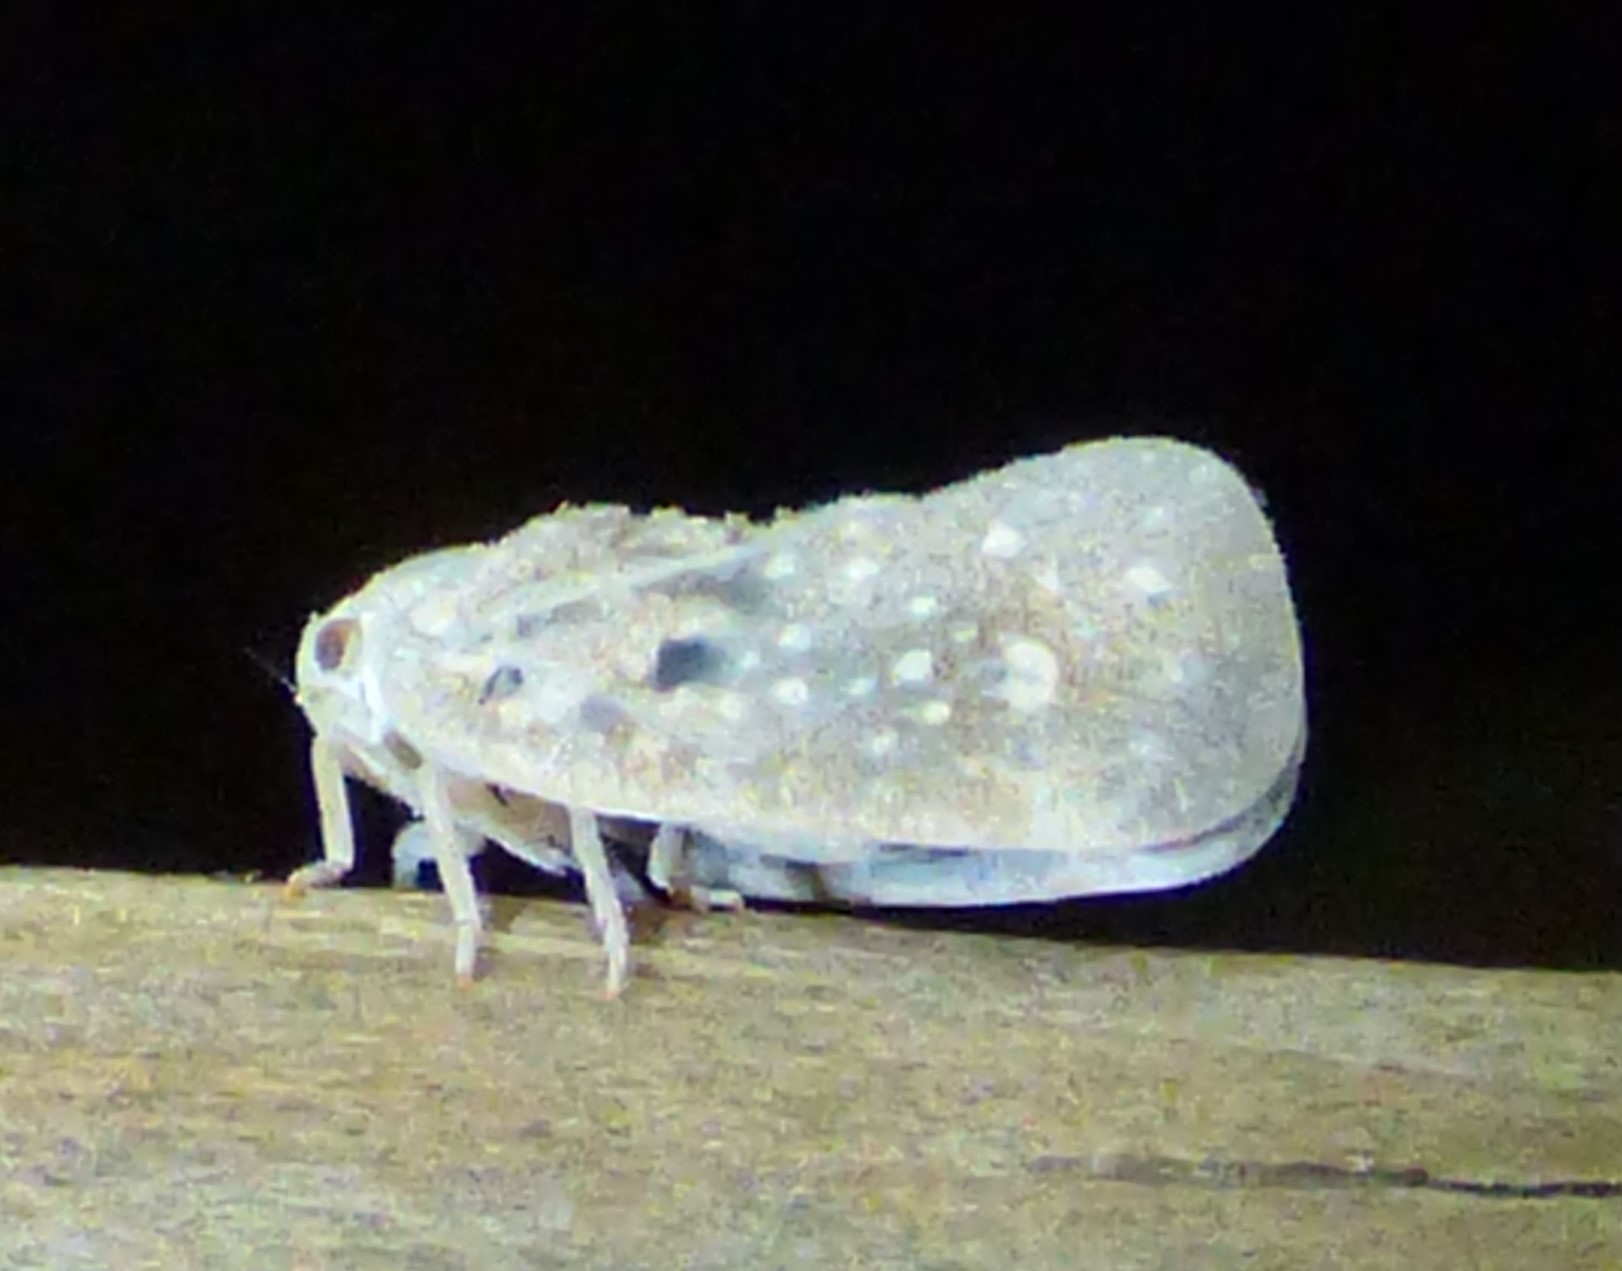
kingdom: Animalia
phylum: Arthropoda
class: Insecta
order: Hemiptera
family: Flatidae
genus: Metcalfa
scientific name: Metcalfa pruinosa
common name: Citrus flatid planthopper
